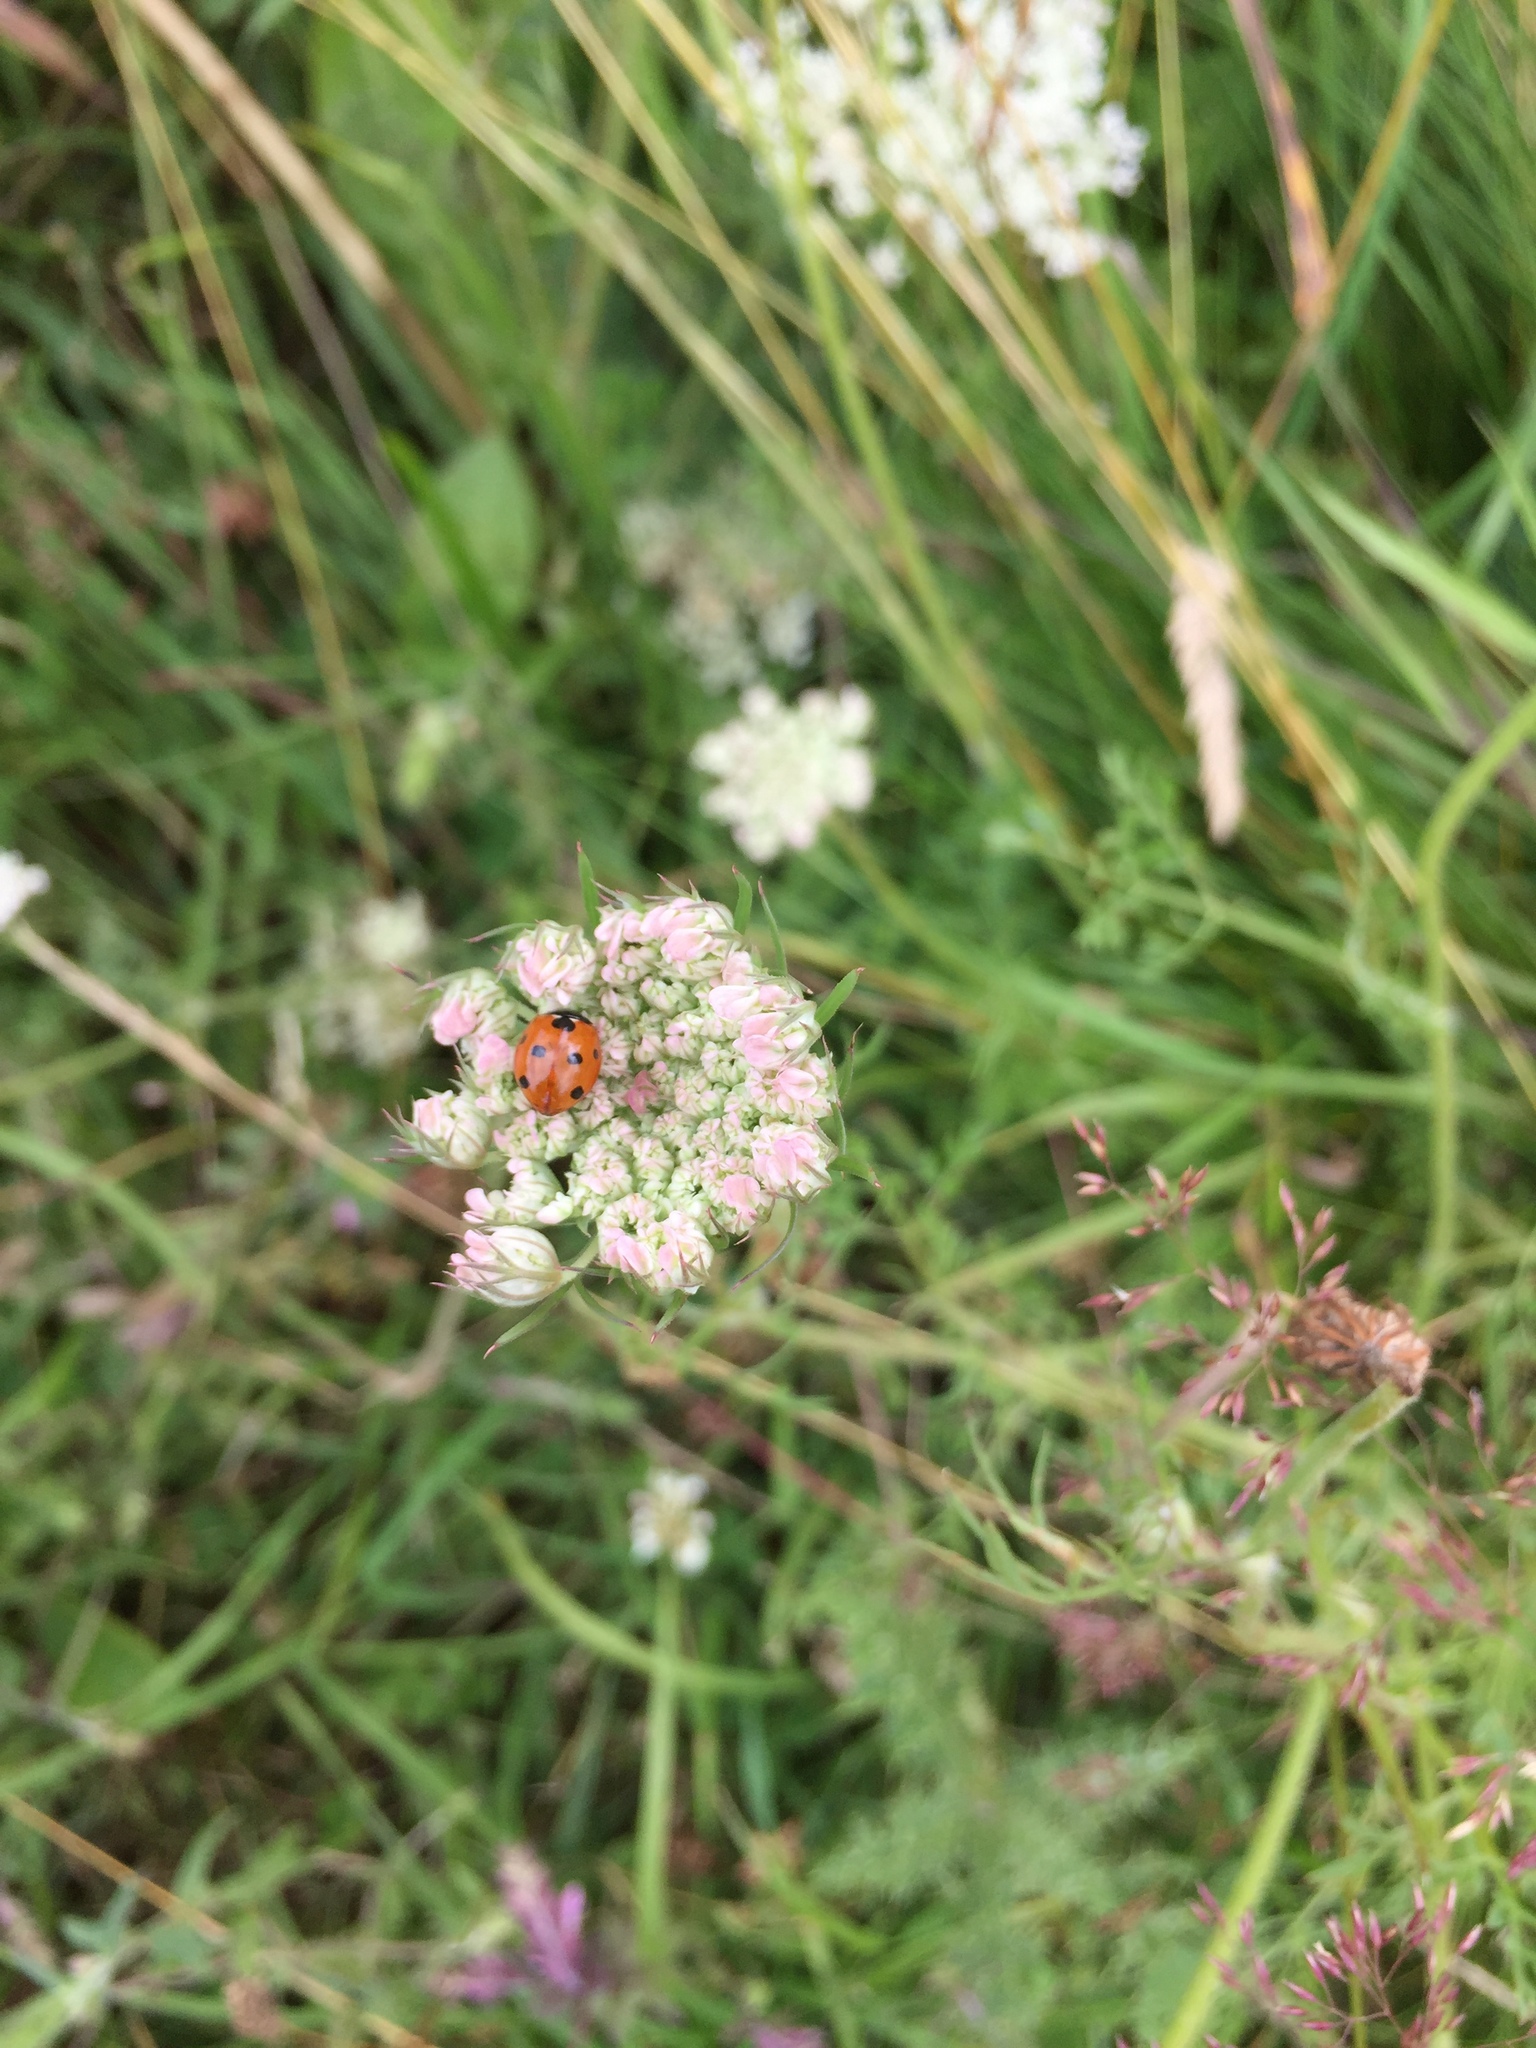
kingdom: Plantae
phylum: Tracheophyta
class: Magnoliopsida
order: Apiales
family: Apiaceae
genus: Daucus
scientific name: Daucus carota
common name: Wild carrot
